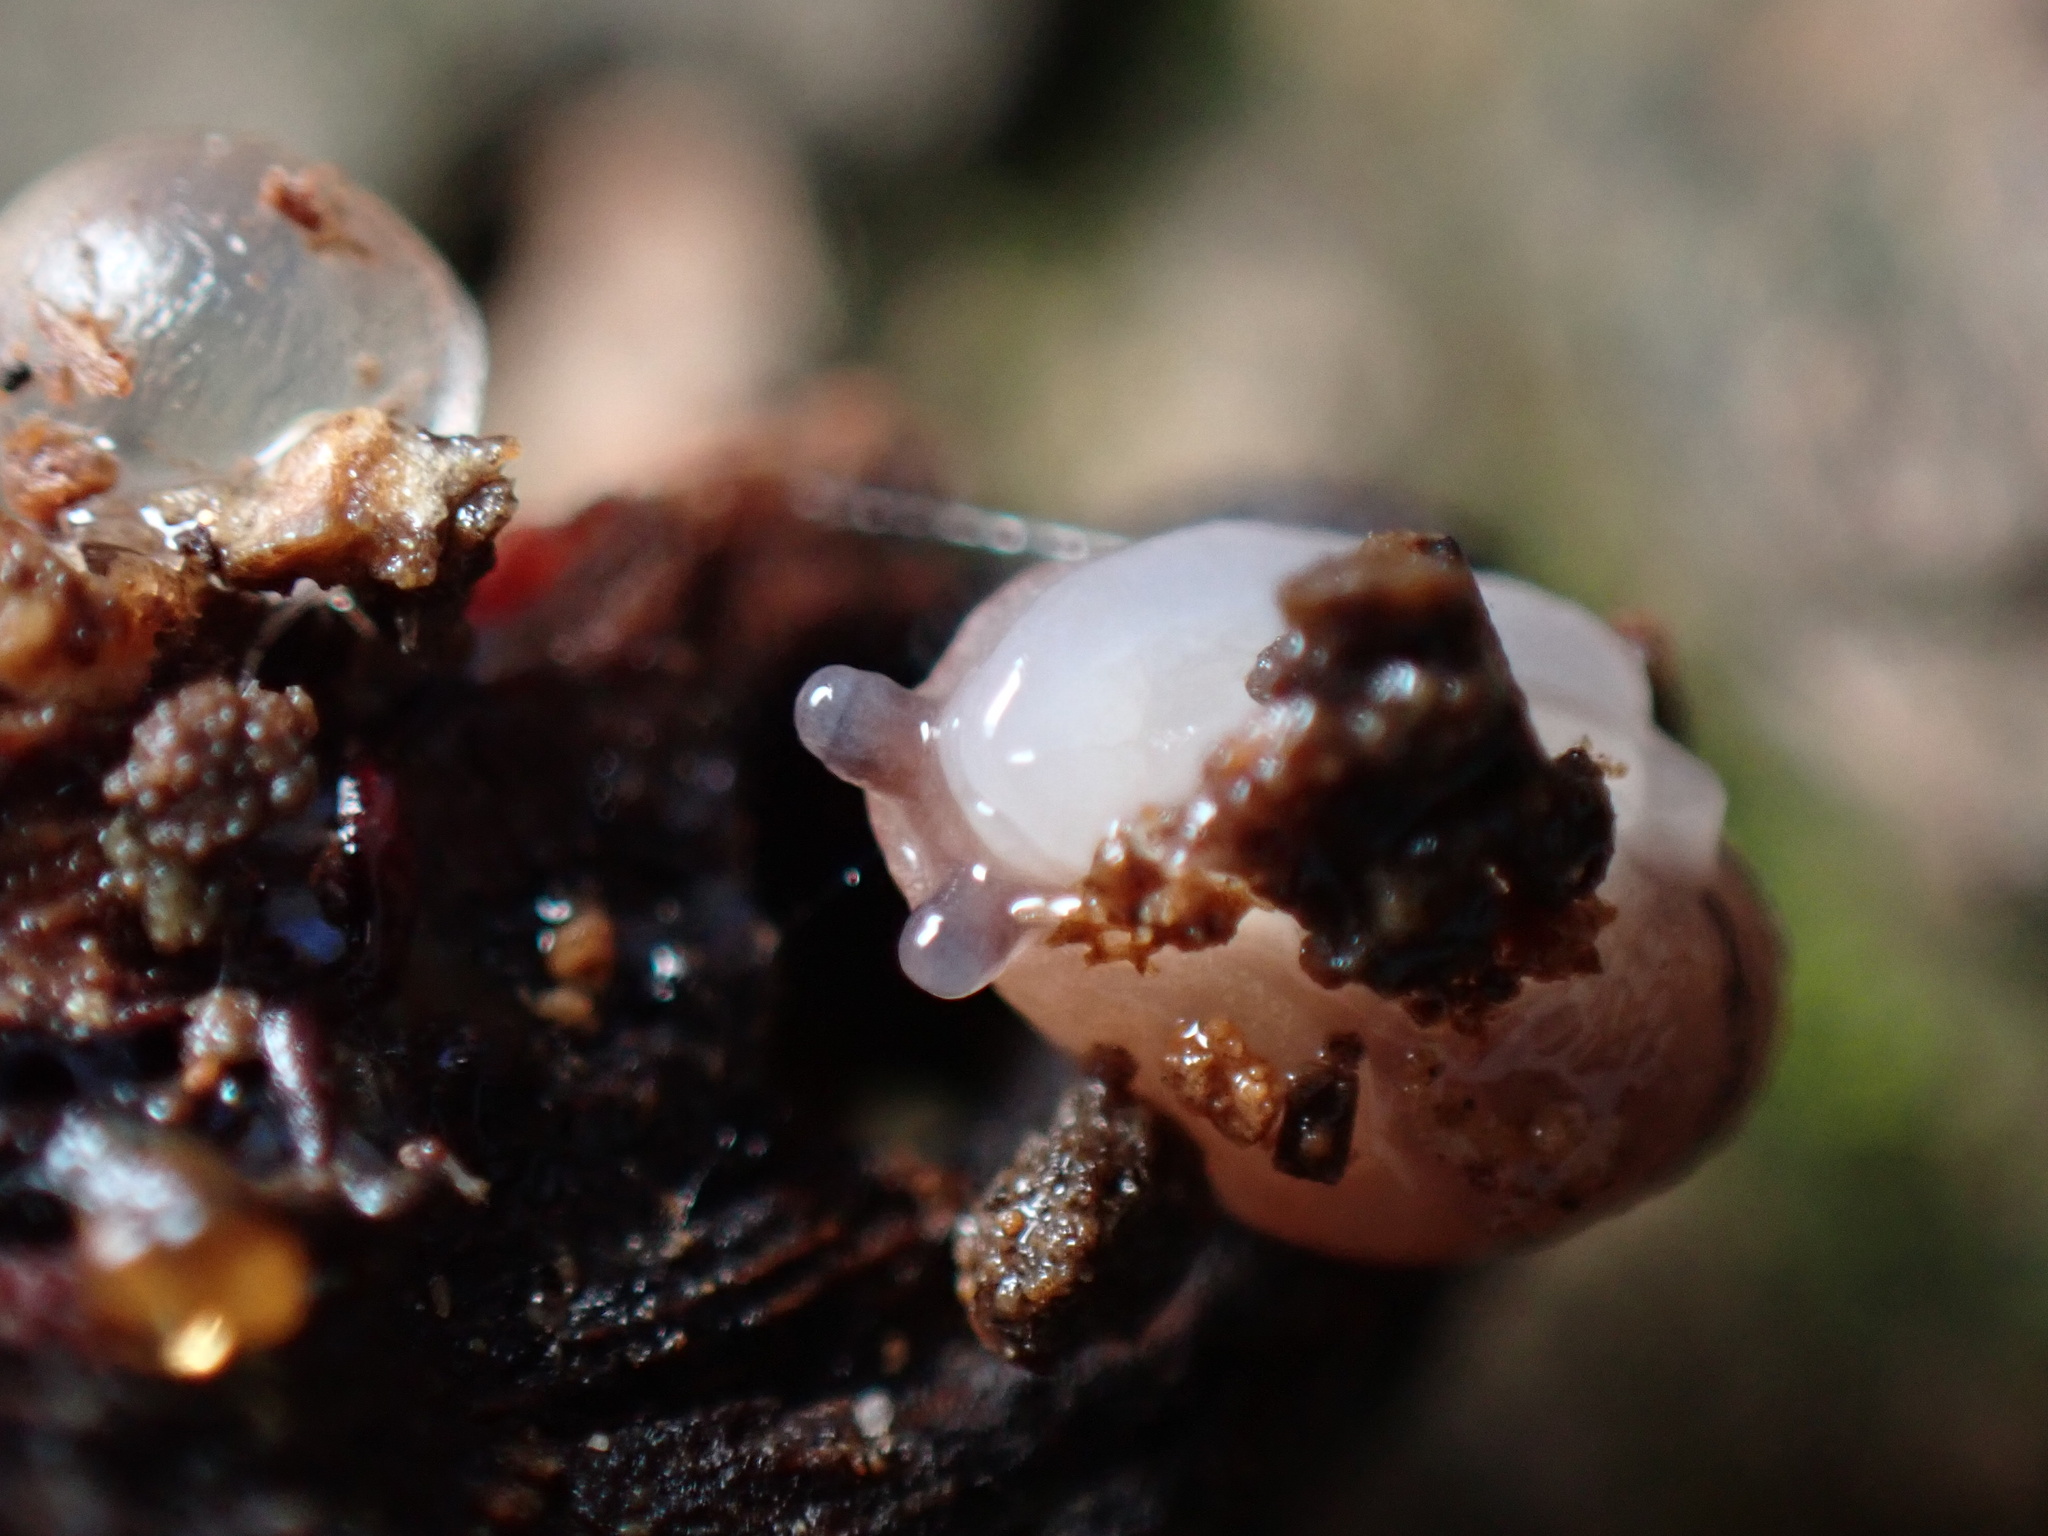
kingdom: Animalia
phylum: Mollusca
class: Gastropoda
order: Stylommatophora
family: Limacidae
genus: Ambigolimax
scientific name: Ambigolimax valentianus
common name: Greenhouse slug
